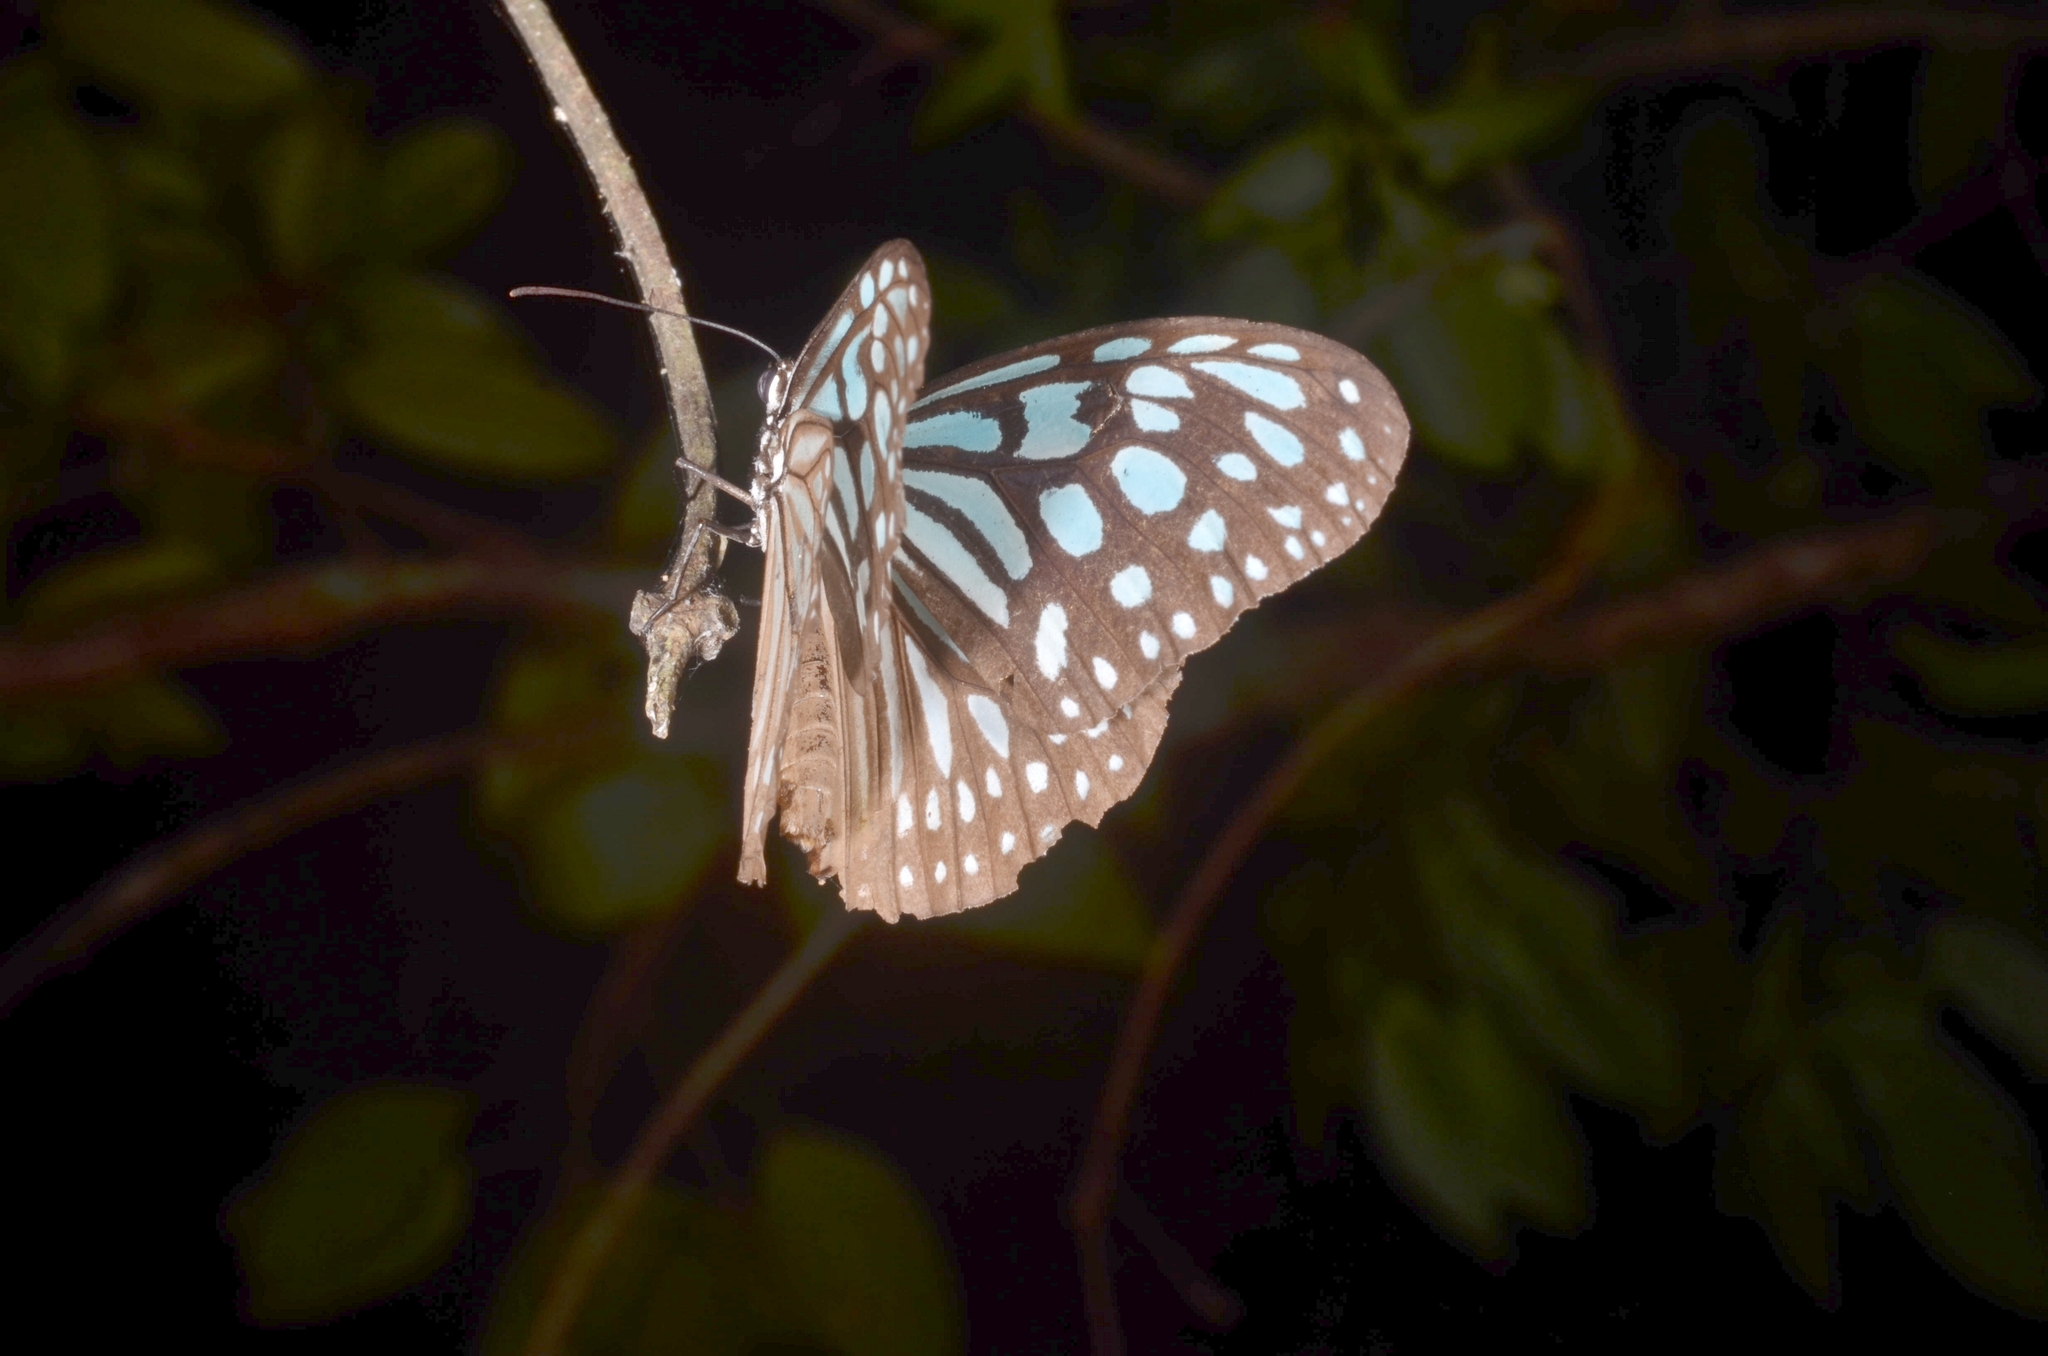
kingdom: Animalia
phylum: Arthropoda
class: Insecta
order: Lepidoptera
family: Nymphalidae
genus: Ideopsis
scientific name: Ideopsis similis
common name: Ceylon blue glassy tiger
